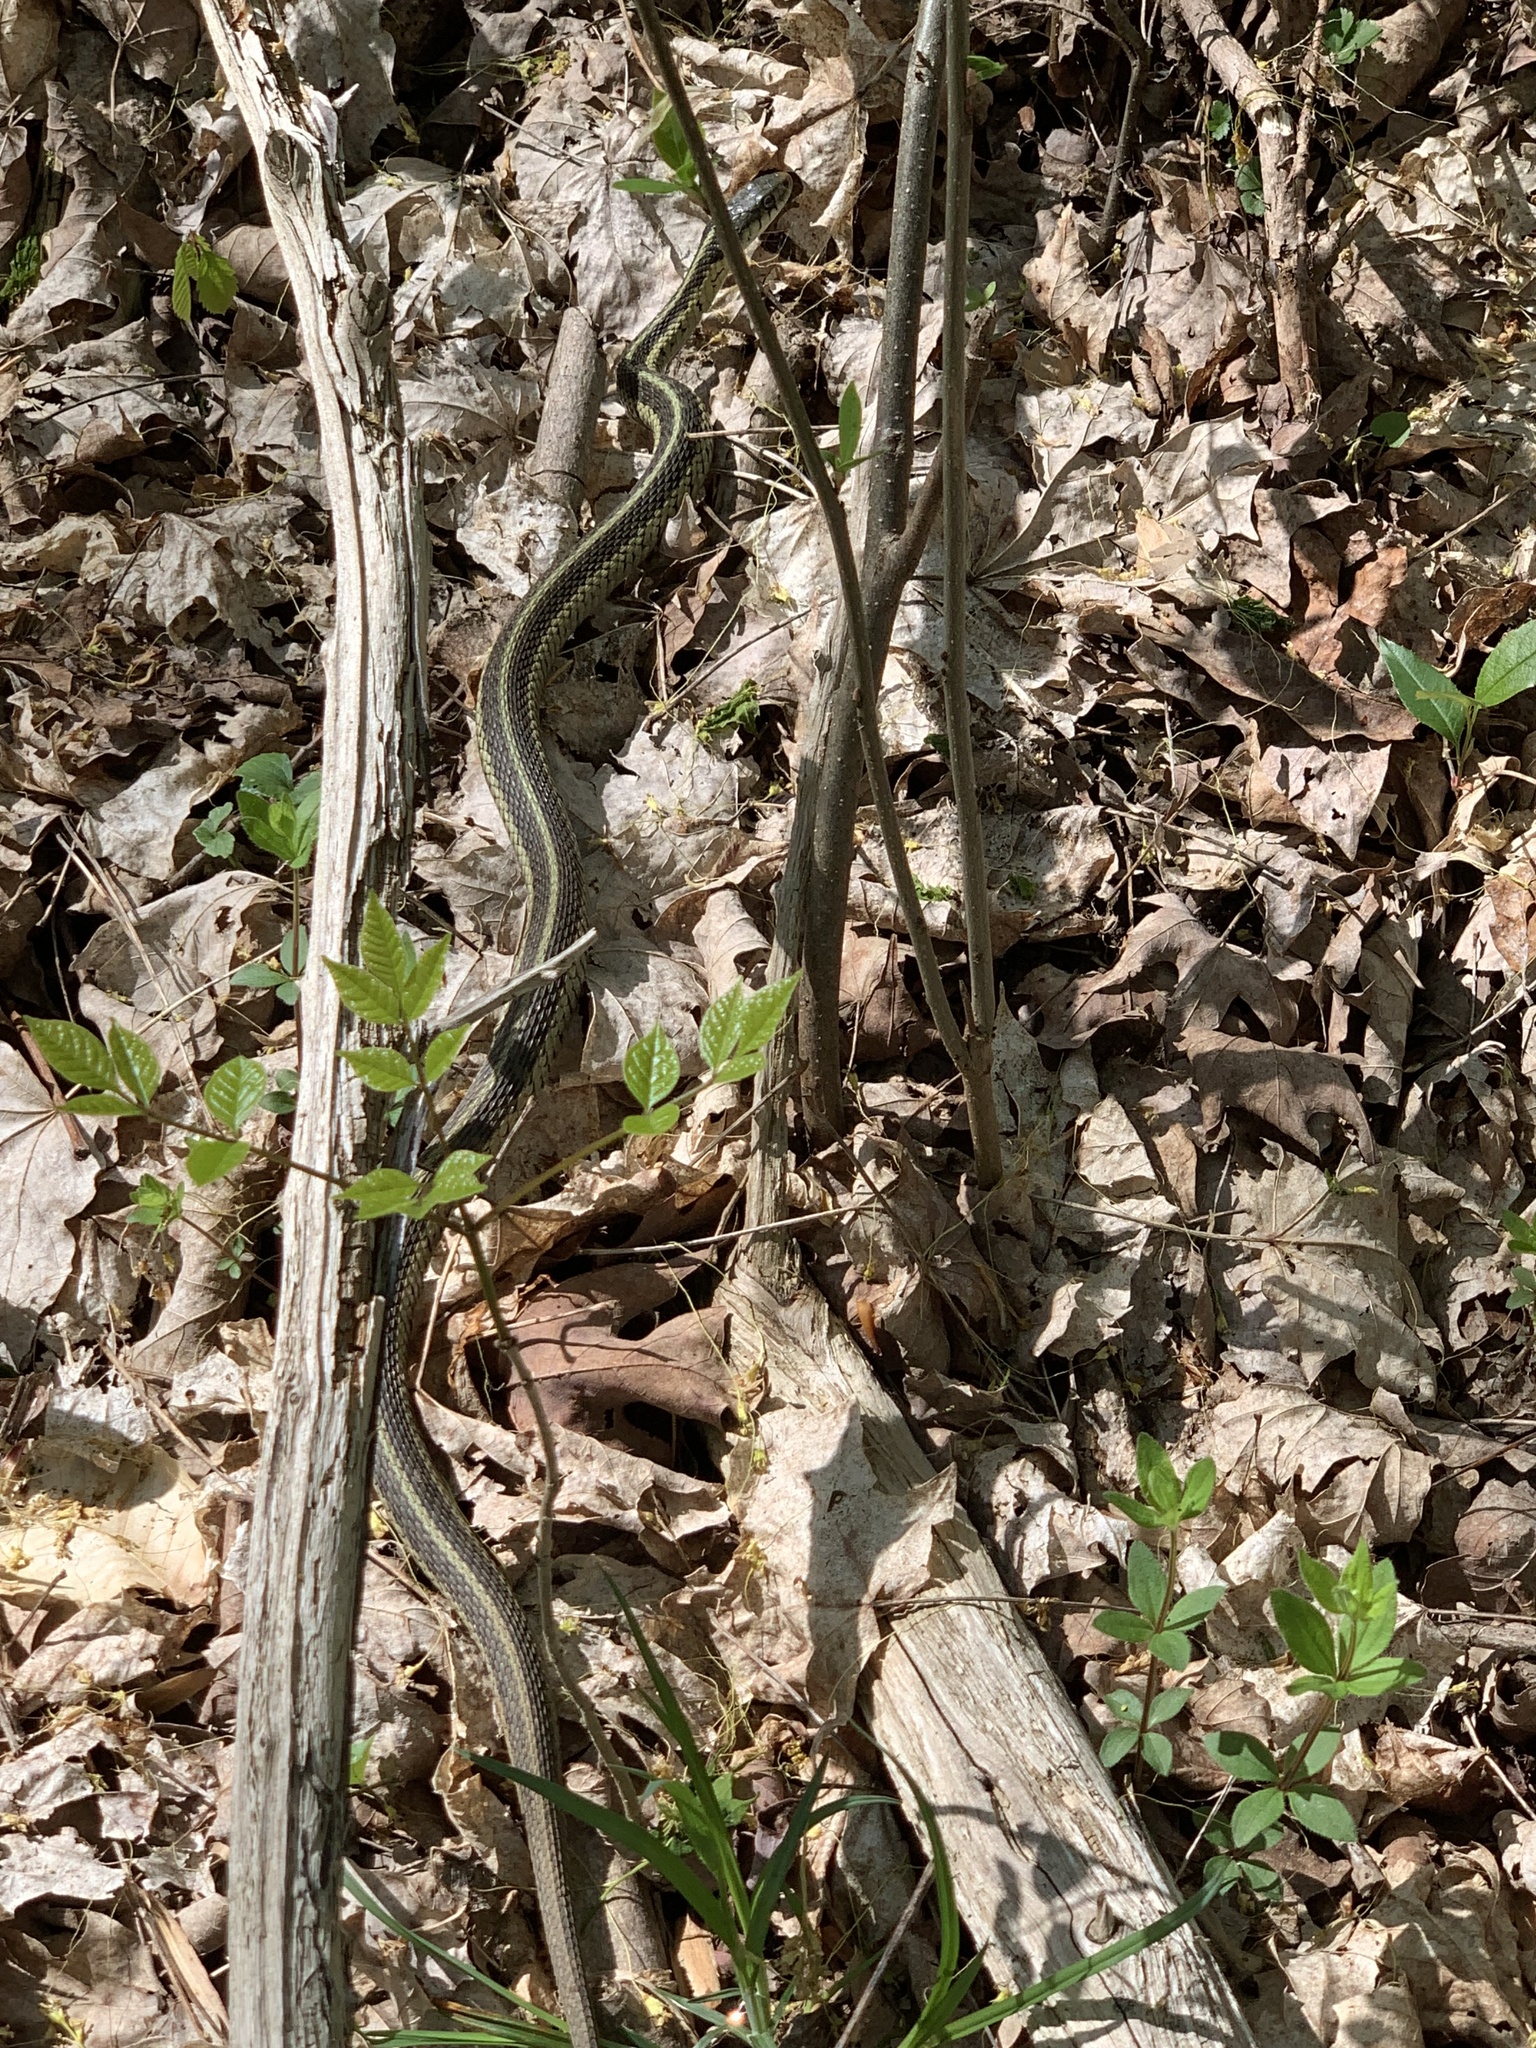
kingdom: Animalia
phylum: Chordata
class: Squamata
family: Colubridae
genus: Thamnophis
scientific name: Thamnophis sirtalis
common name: Common garter snake
